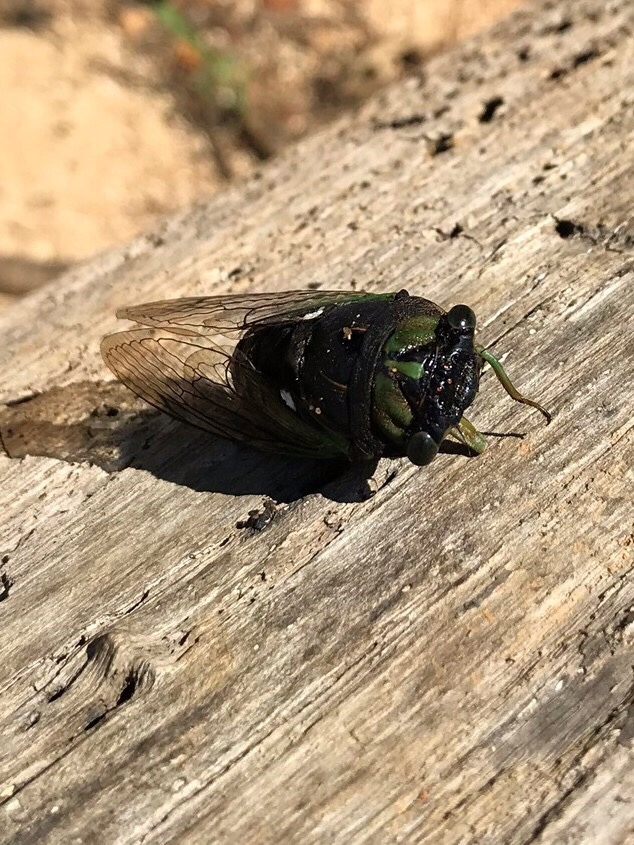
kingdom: Animalia
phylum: Arthropoda
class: Insecta
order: Hemiptera
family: Cicadidae
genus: Neotibicen
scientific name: Neotibicen tibicen
